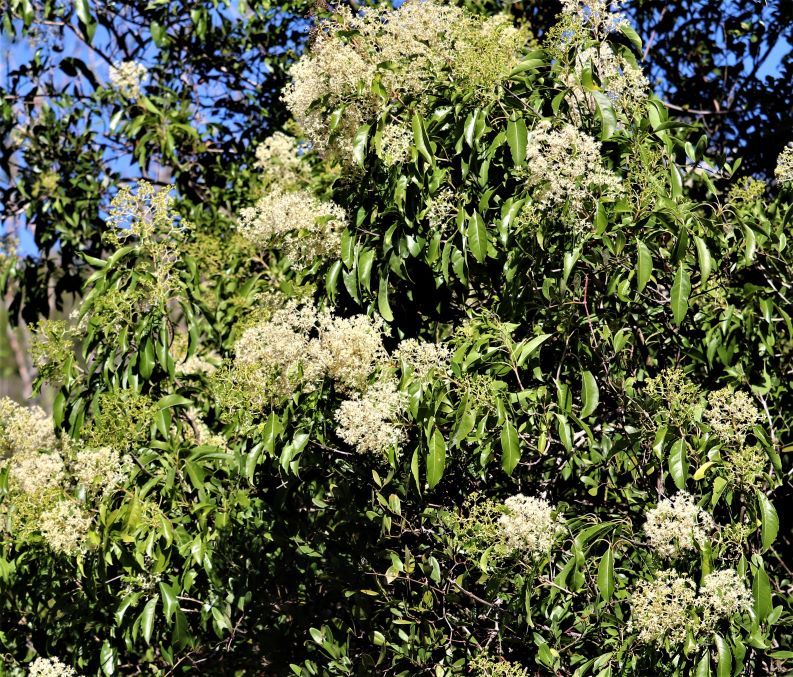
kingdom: Plantae
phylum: Tracheophyta
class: Magnoliopsida
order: Lamiales
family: Stilbaceae
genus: Nuxia
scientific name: Nuxia floribunda
